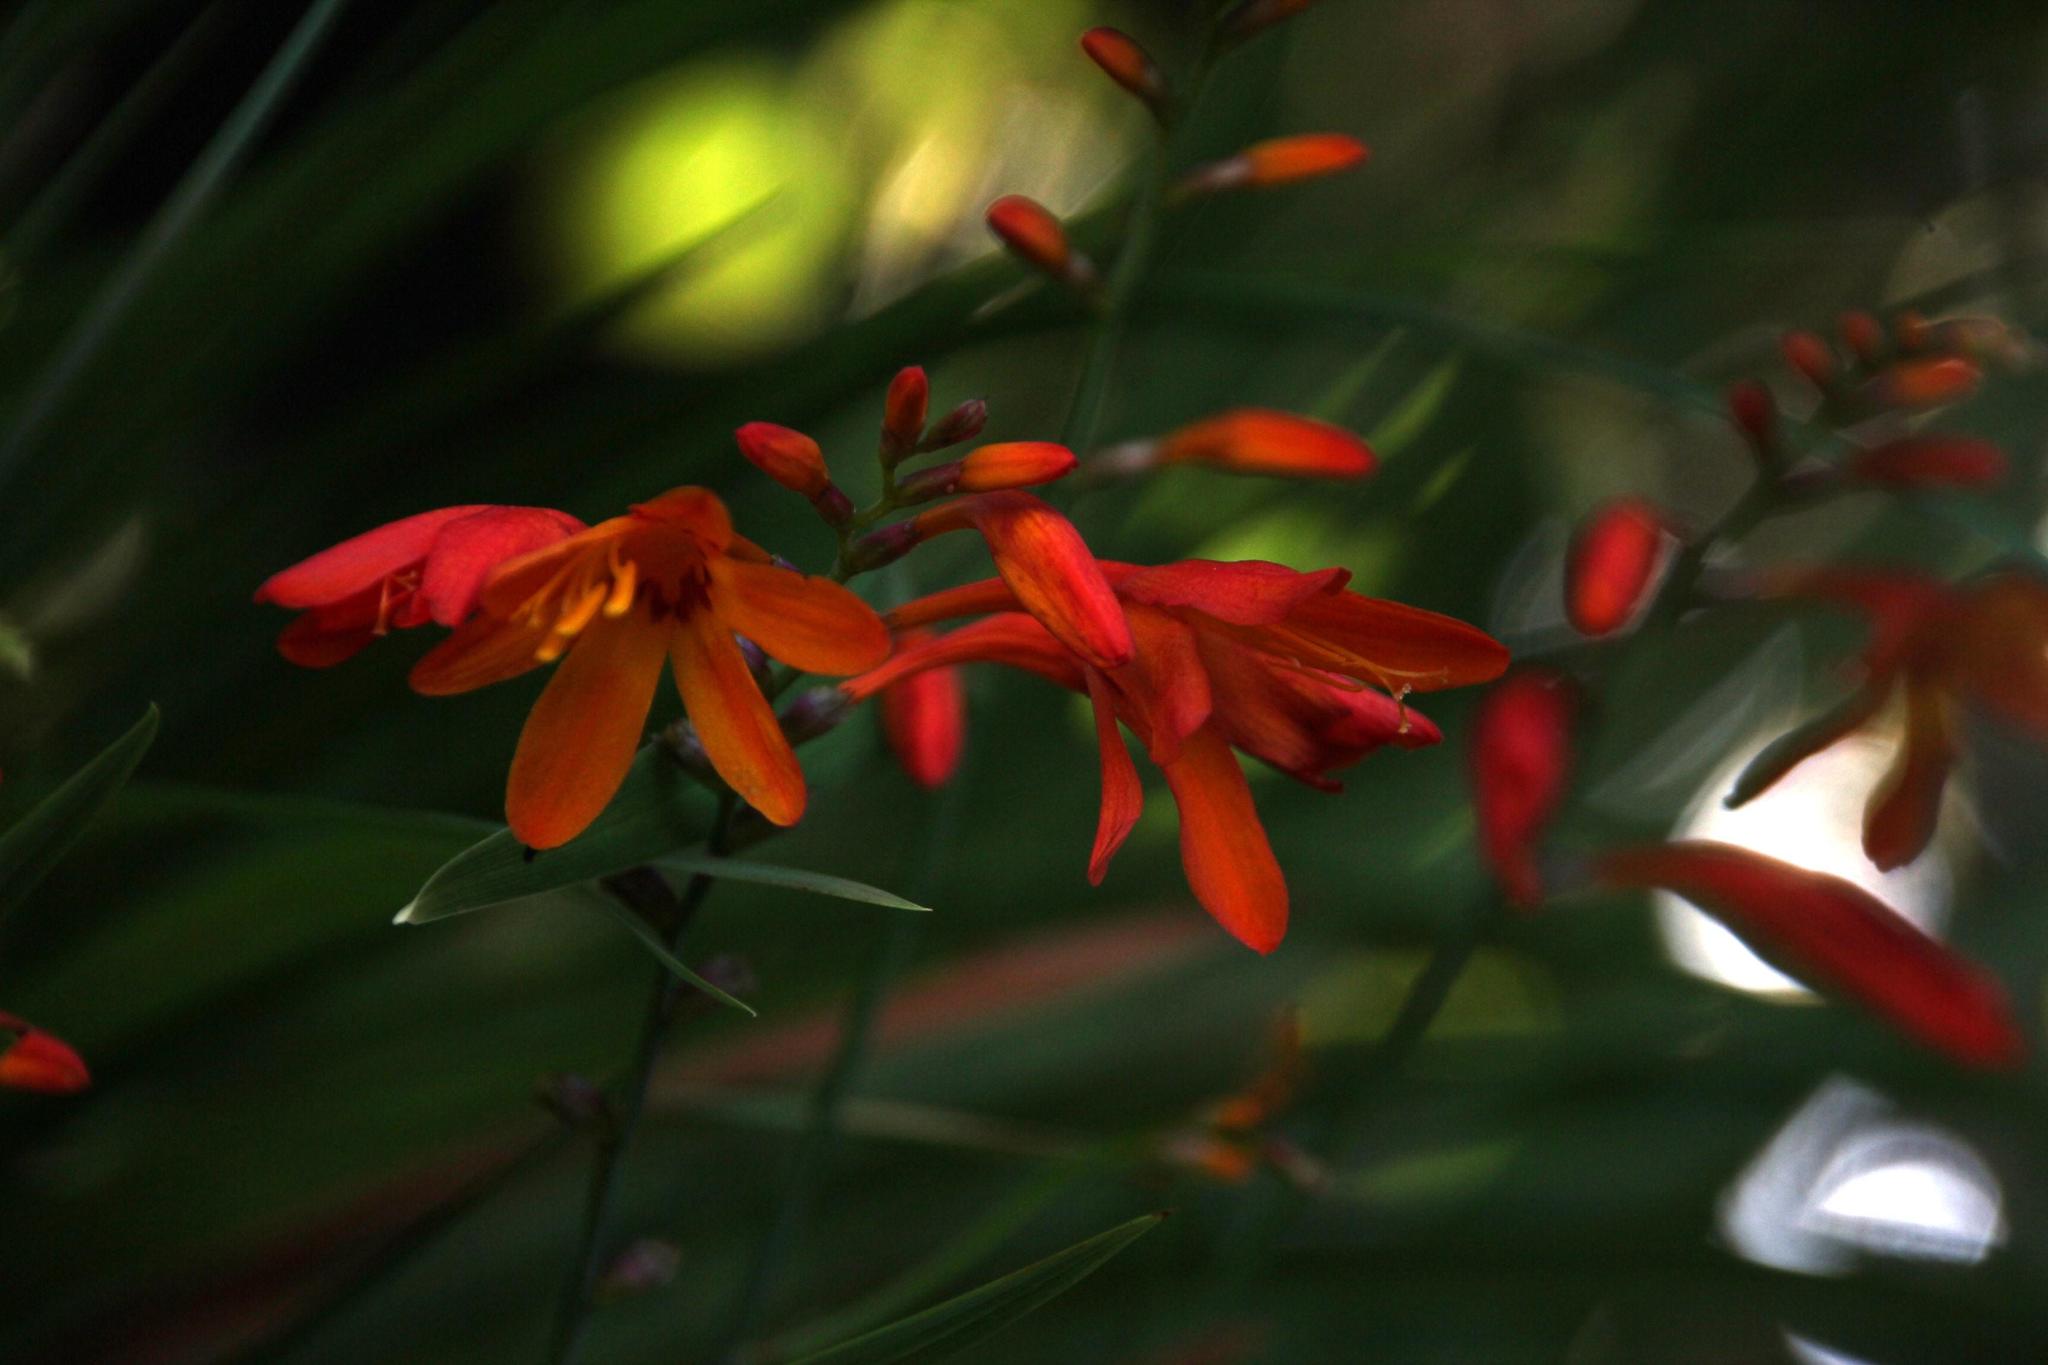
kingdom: Plantae
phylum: Tracheophyta
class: Liliopsida
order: Asparagales
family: Iridaceae
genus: Crocosmia
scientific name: Crocosmia crocosmiiflora
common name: Montbretia
